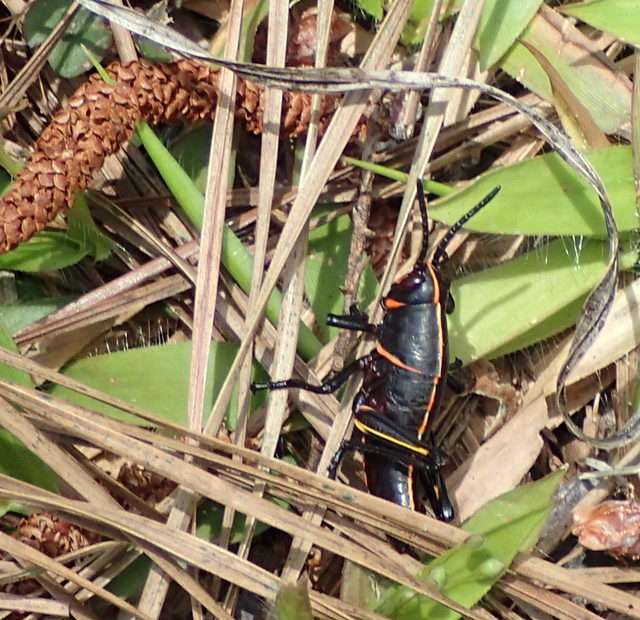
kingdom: Animalia
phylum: Arthropoda
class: Insecta
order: Orthoptera
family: Romaleidae
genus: Romalea
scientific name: Romalea microptera
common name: Eastern lubber grasshopper
